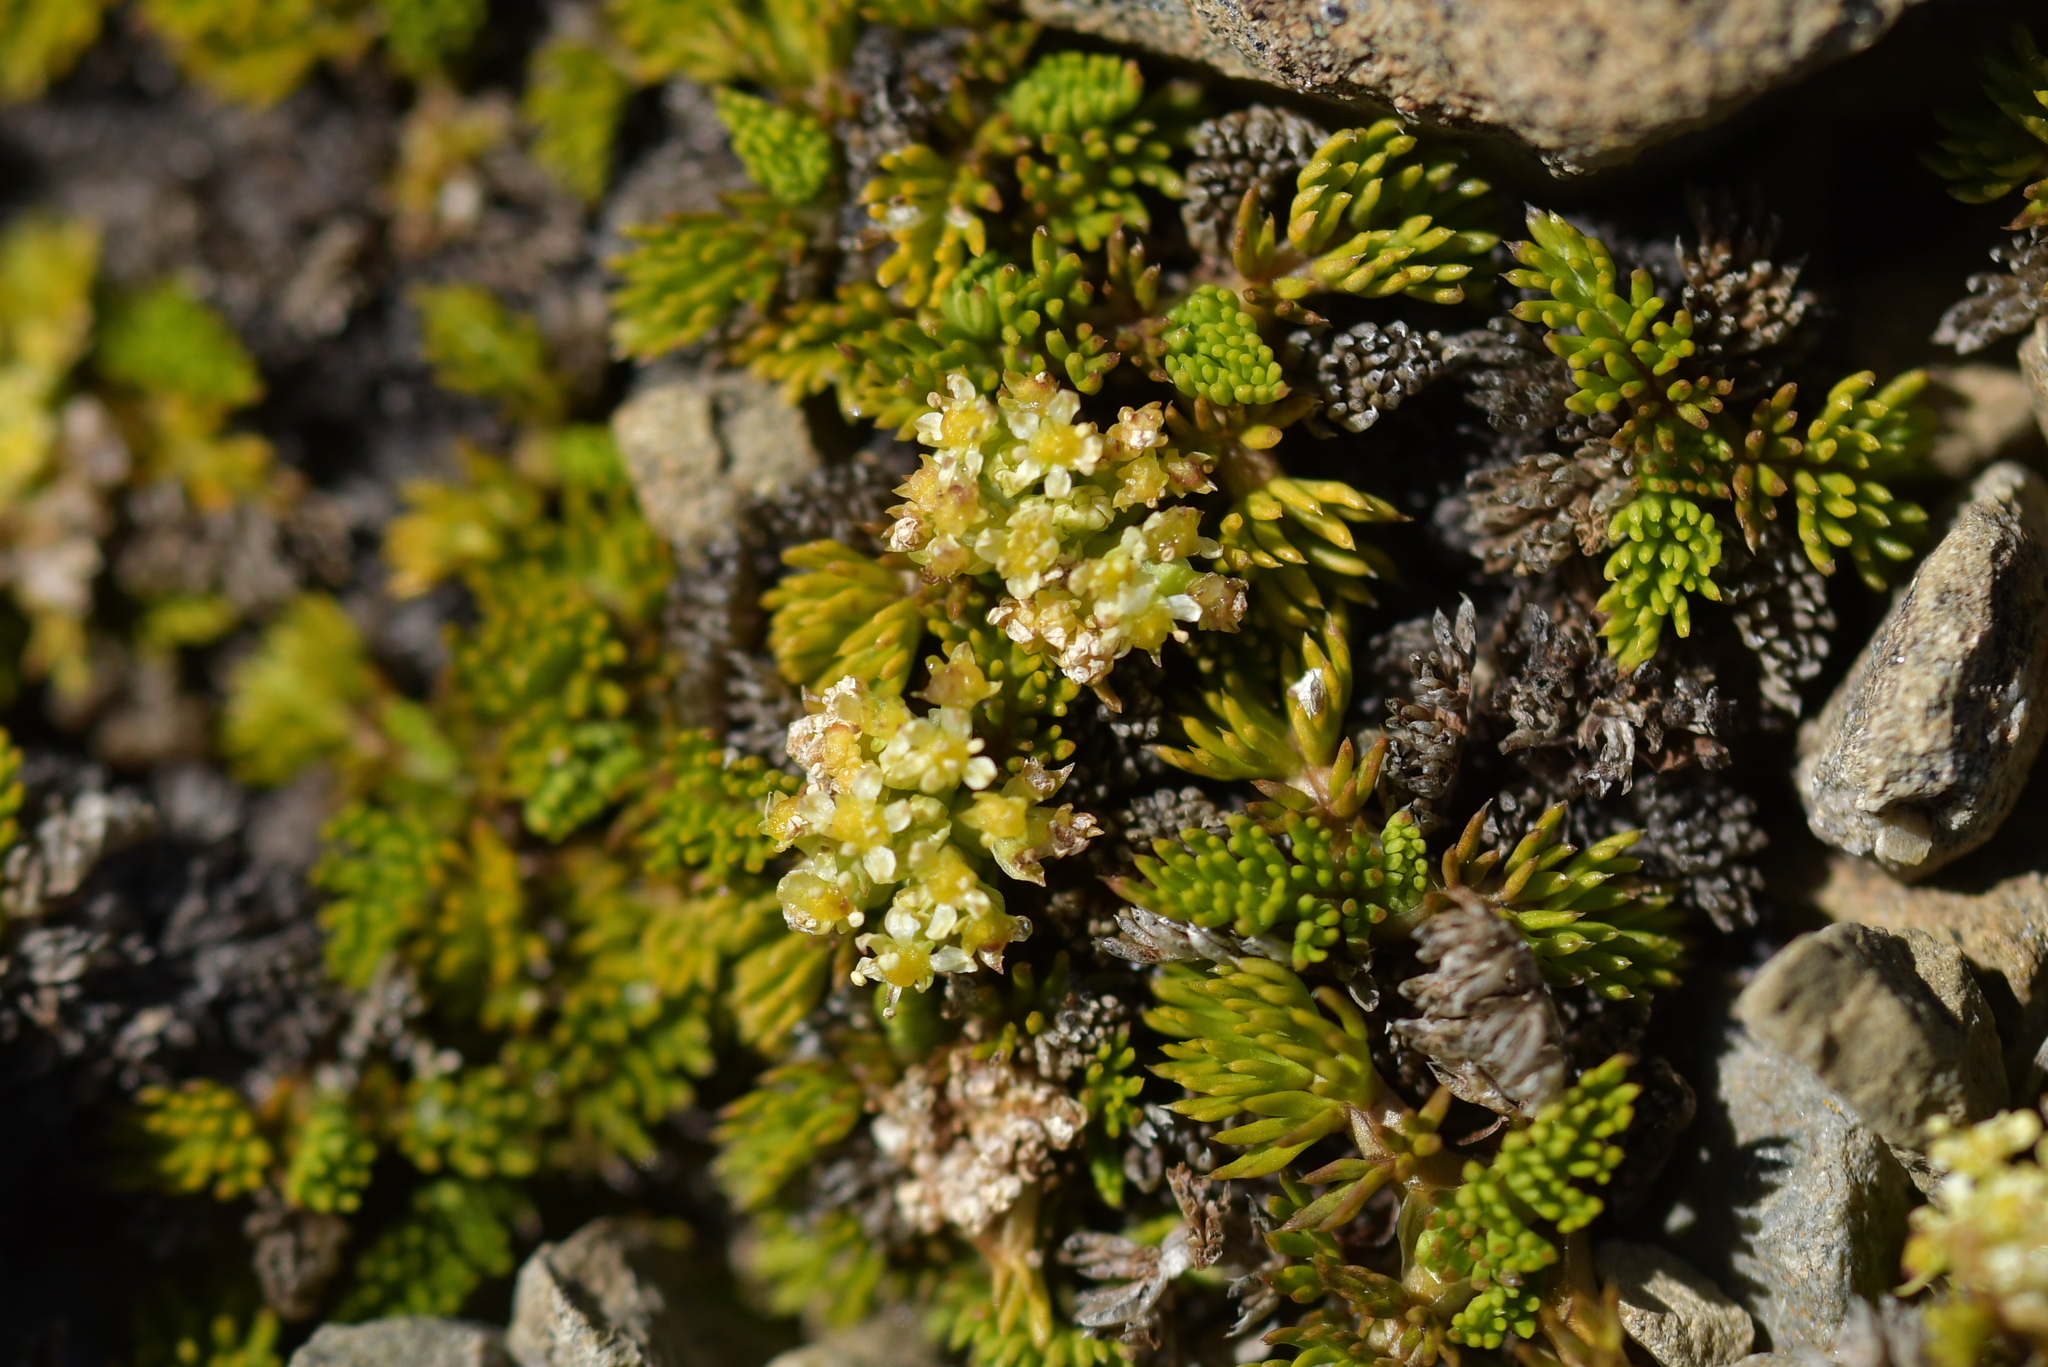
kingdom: Plantae
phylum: Tracheophyta
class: Magnoliopsida
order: Apiales
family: Apiaceae
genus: Anisotome
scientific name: Anisotome imbricata
